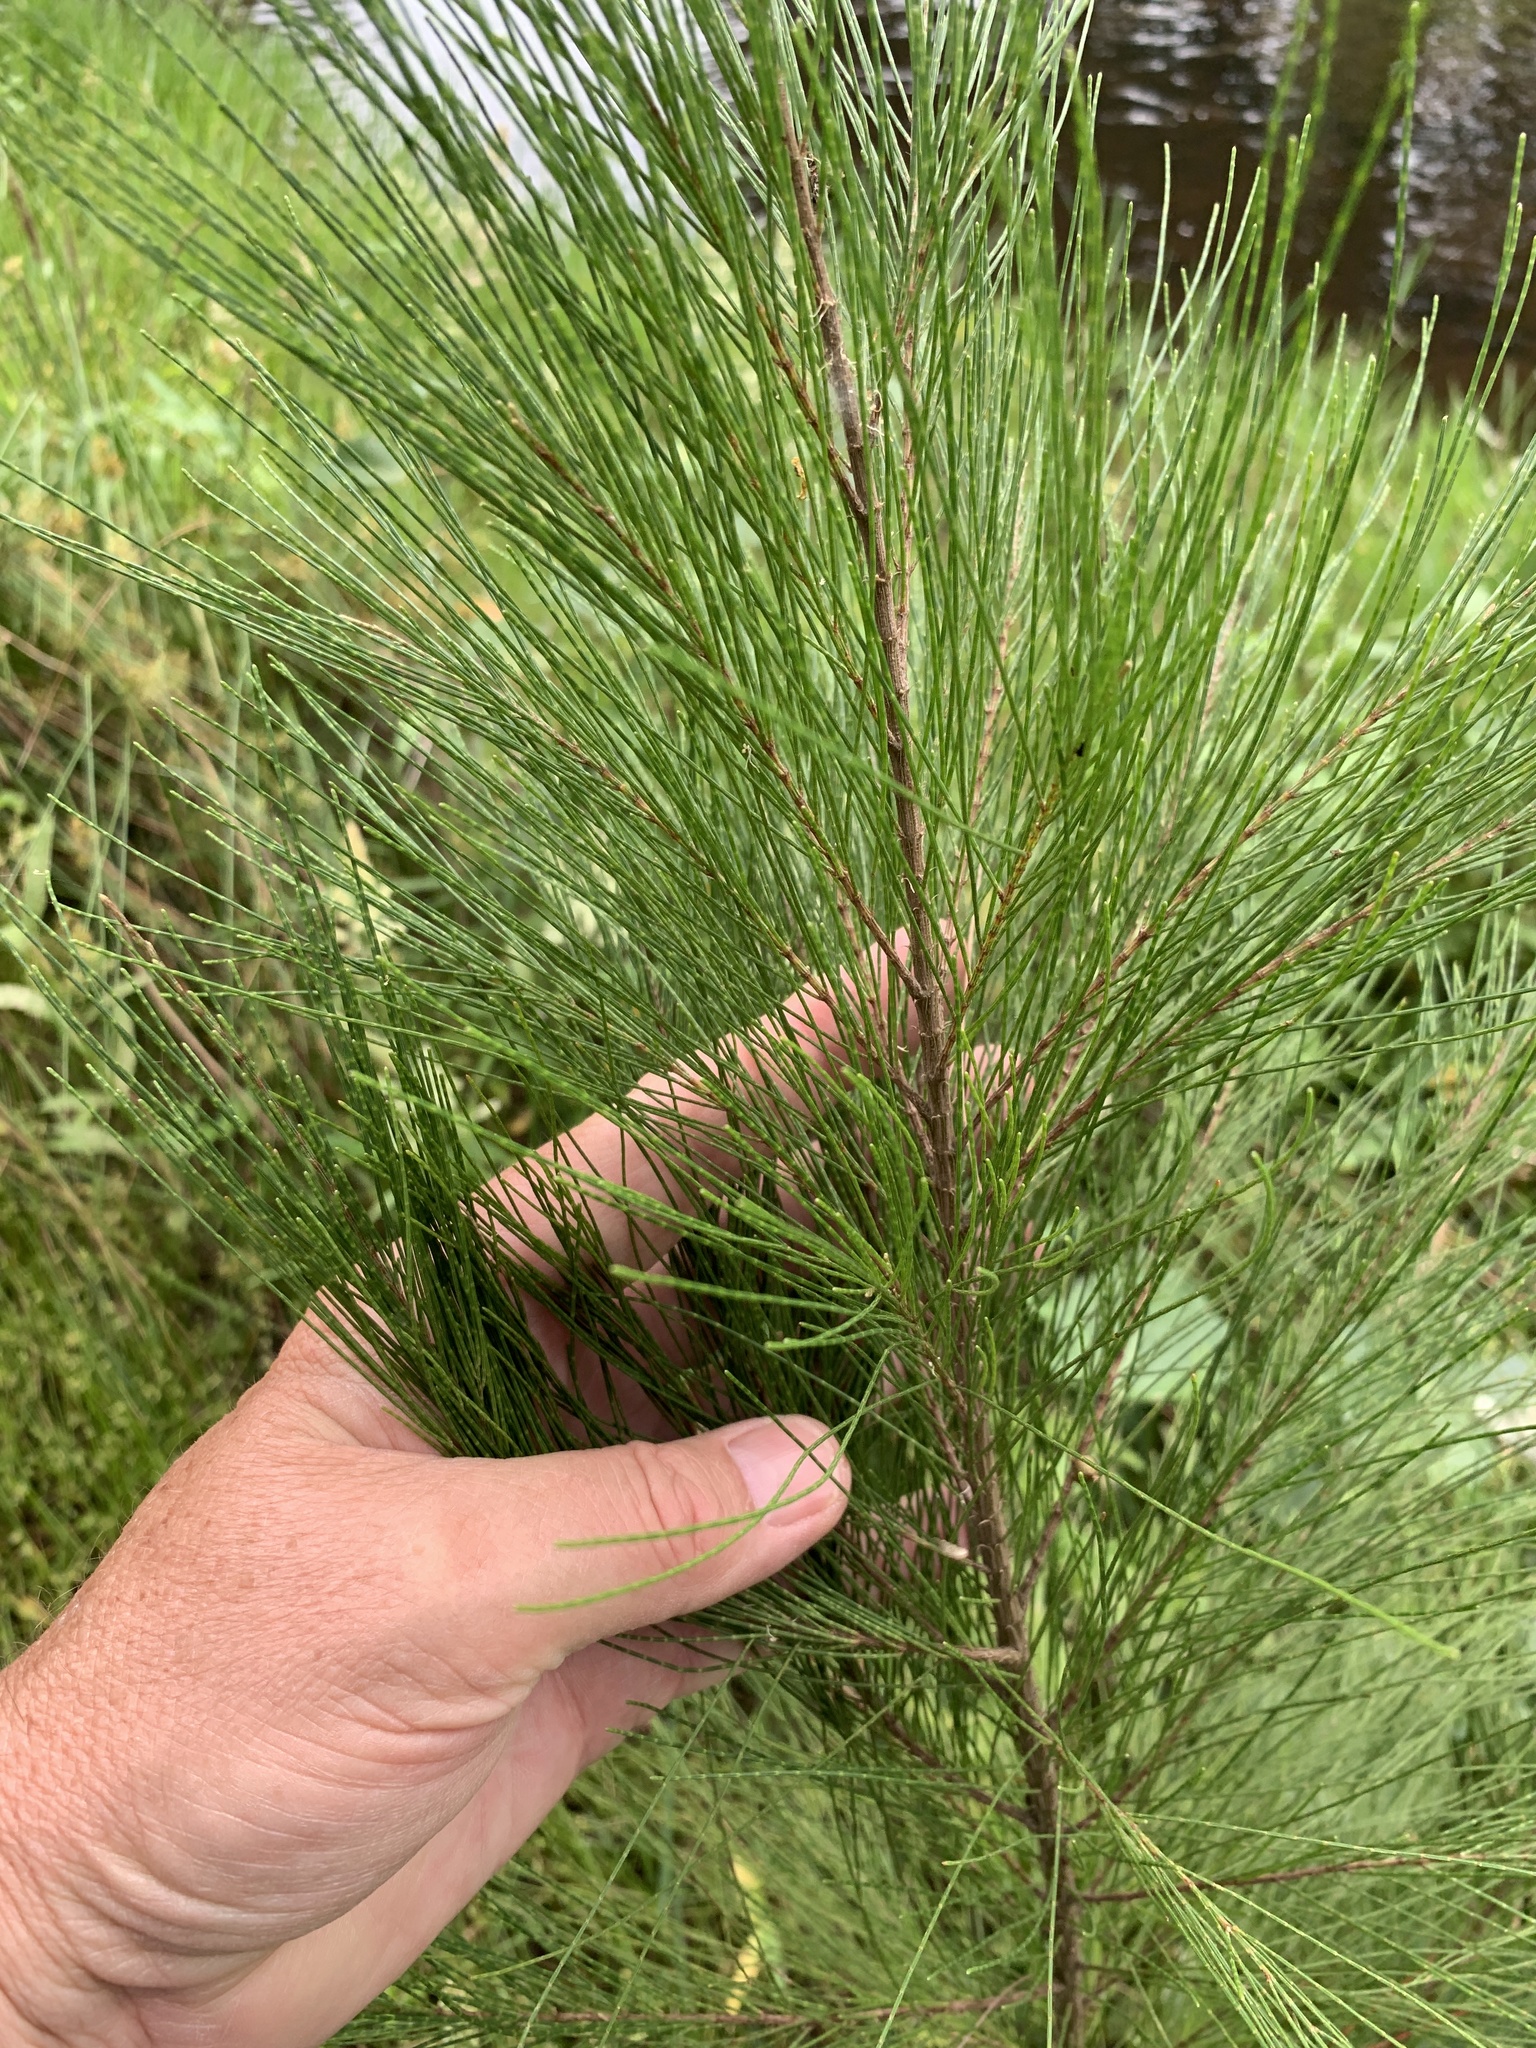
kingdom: Plantae
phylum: Tracheophyta
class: Magnoliopsida
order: Fagales
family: Casuarinaceae
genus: Casuarina
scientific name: Casuarina cunninghamiana
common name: River sheoak
